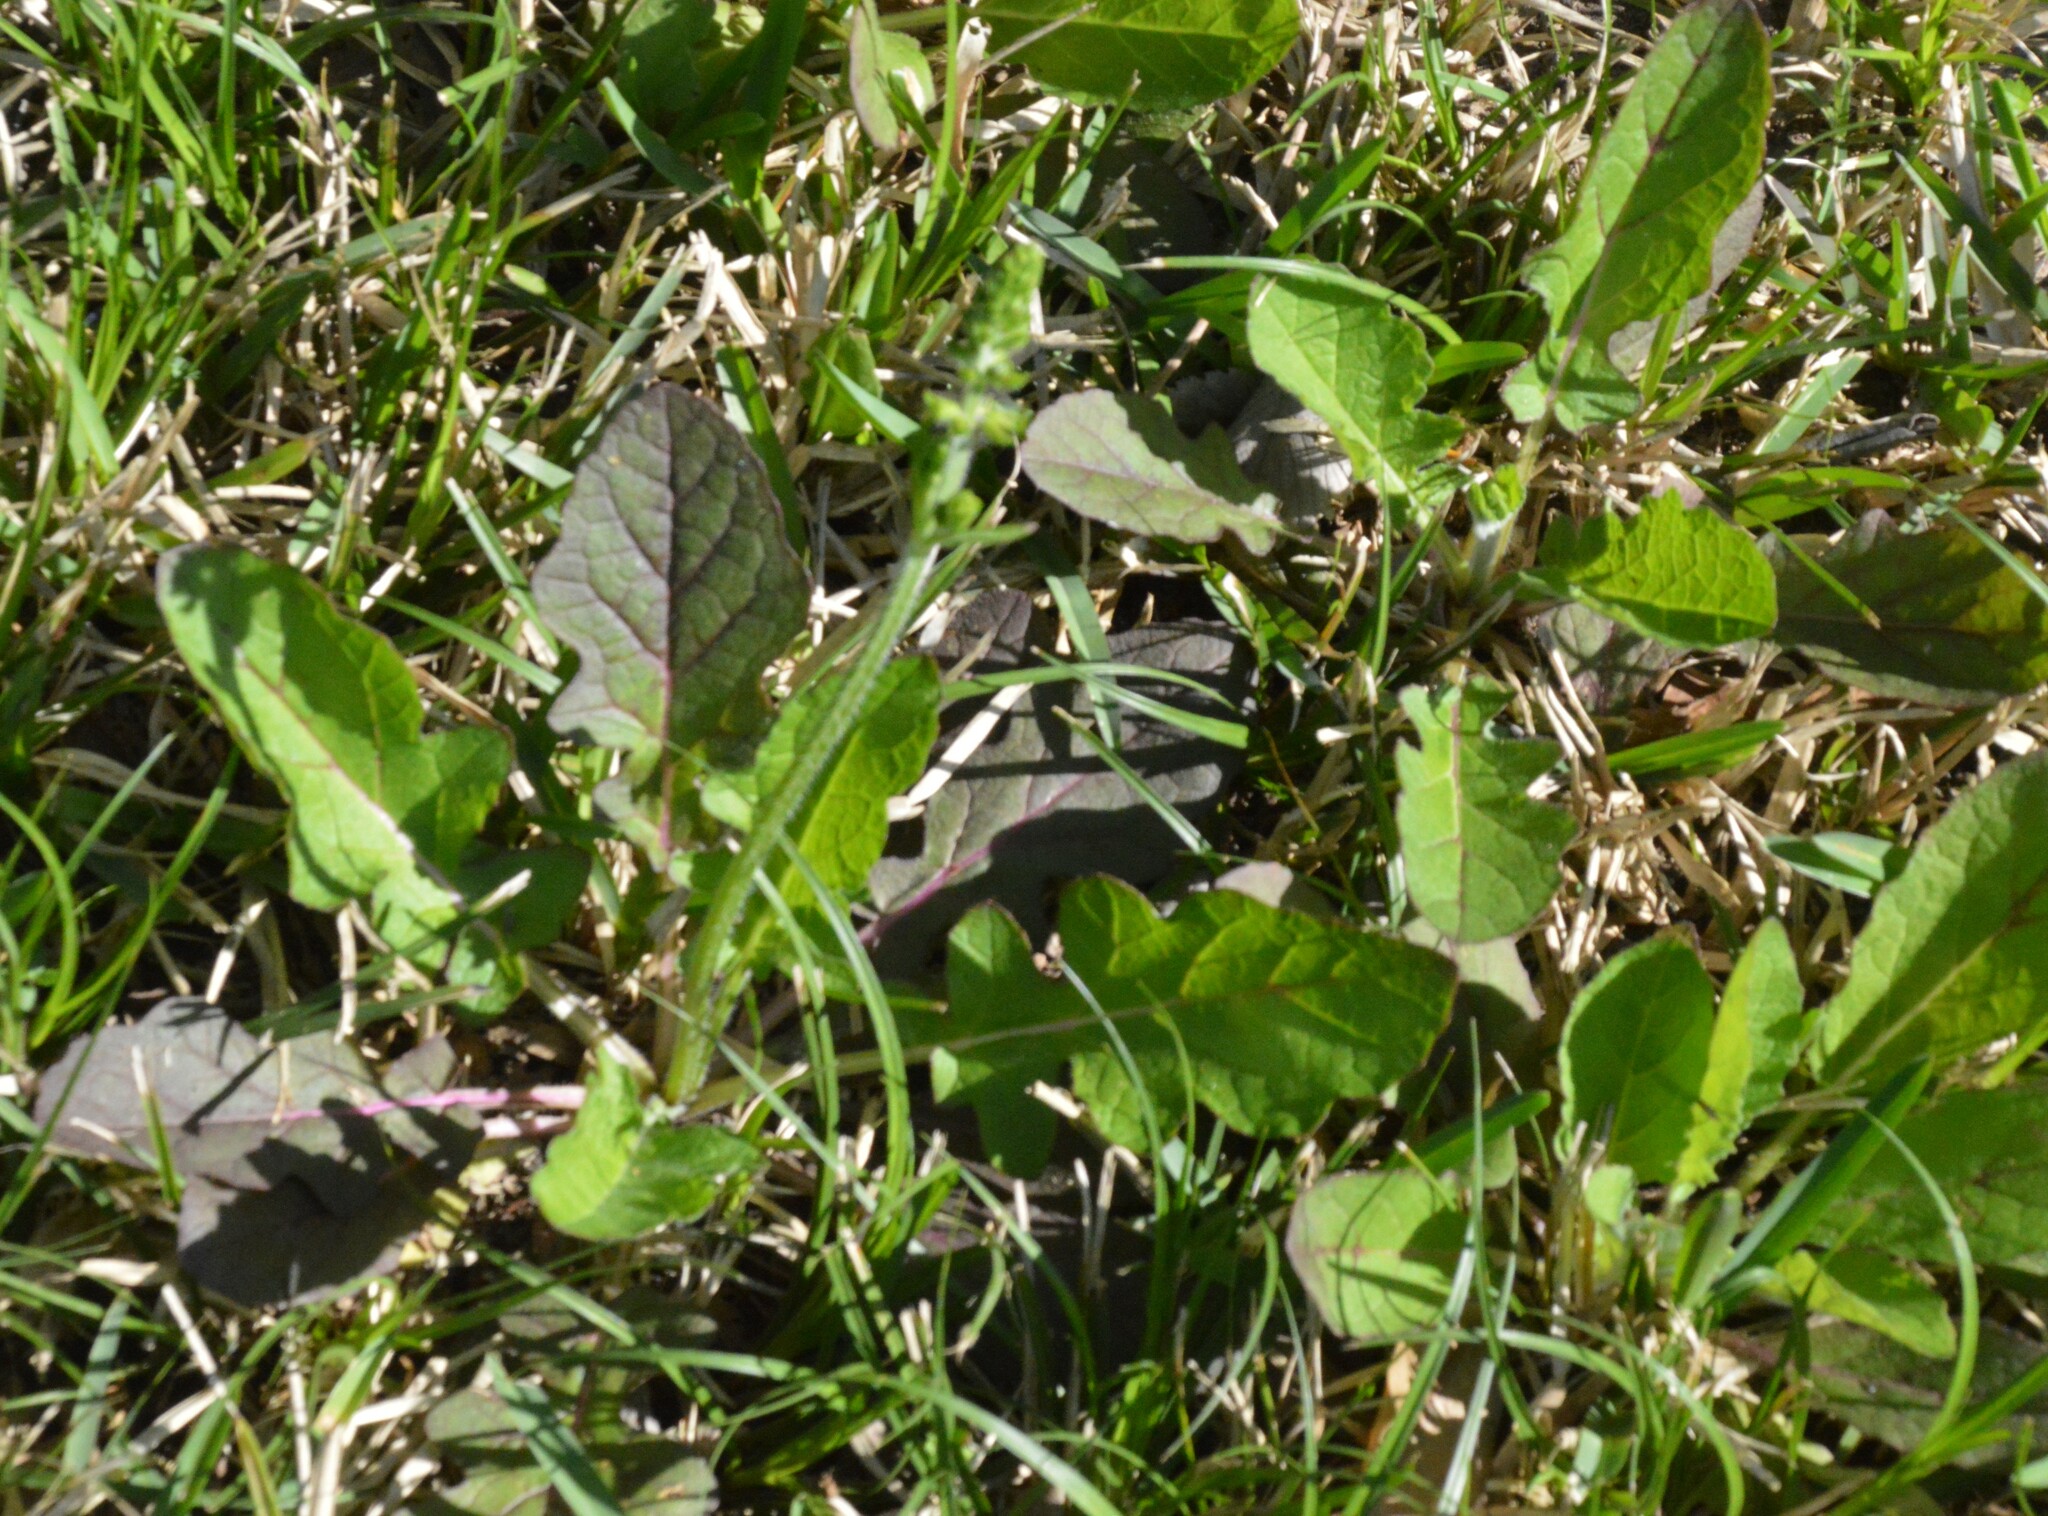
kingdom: Plantae
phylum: Tracheophyta
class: Magnoliopsida
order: Lamiales
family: Lamiaceae
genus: Salvia
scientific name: Salvia lyrata
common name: Cancerweed
